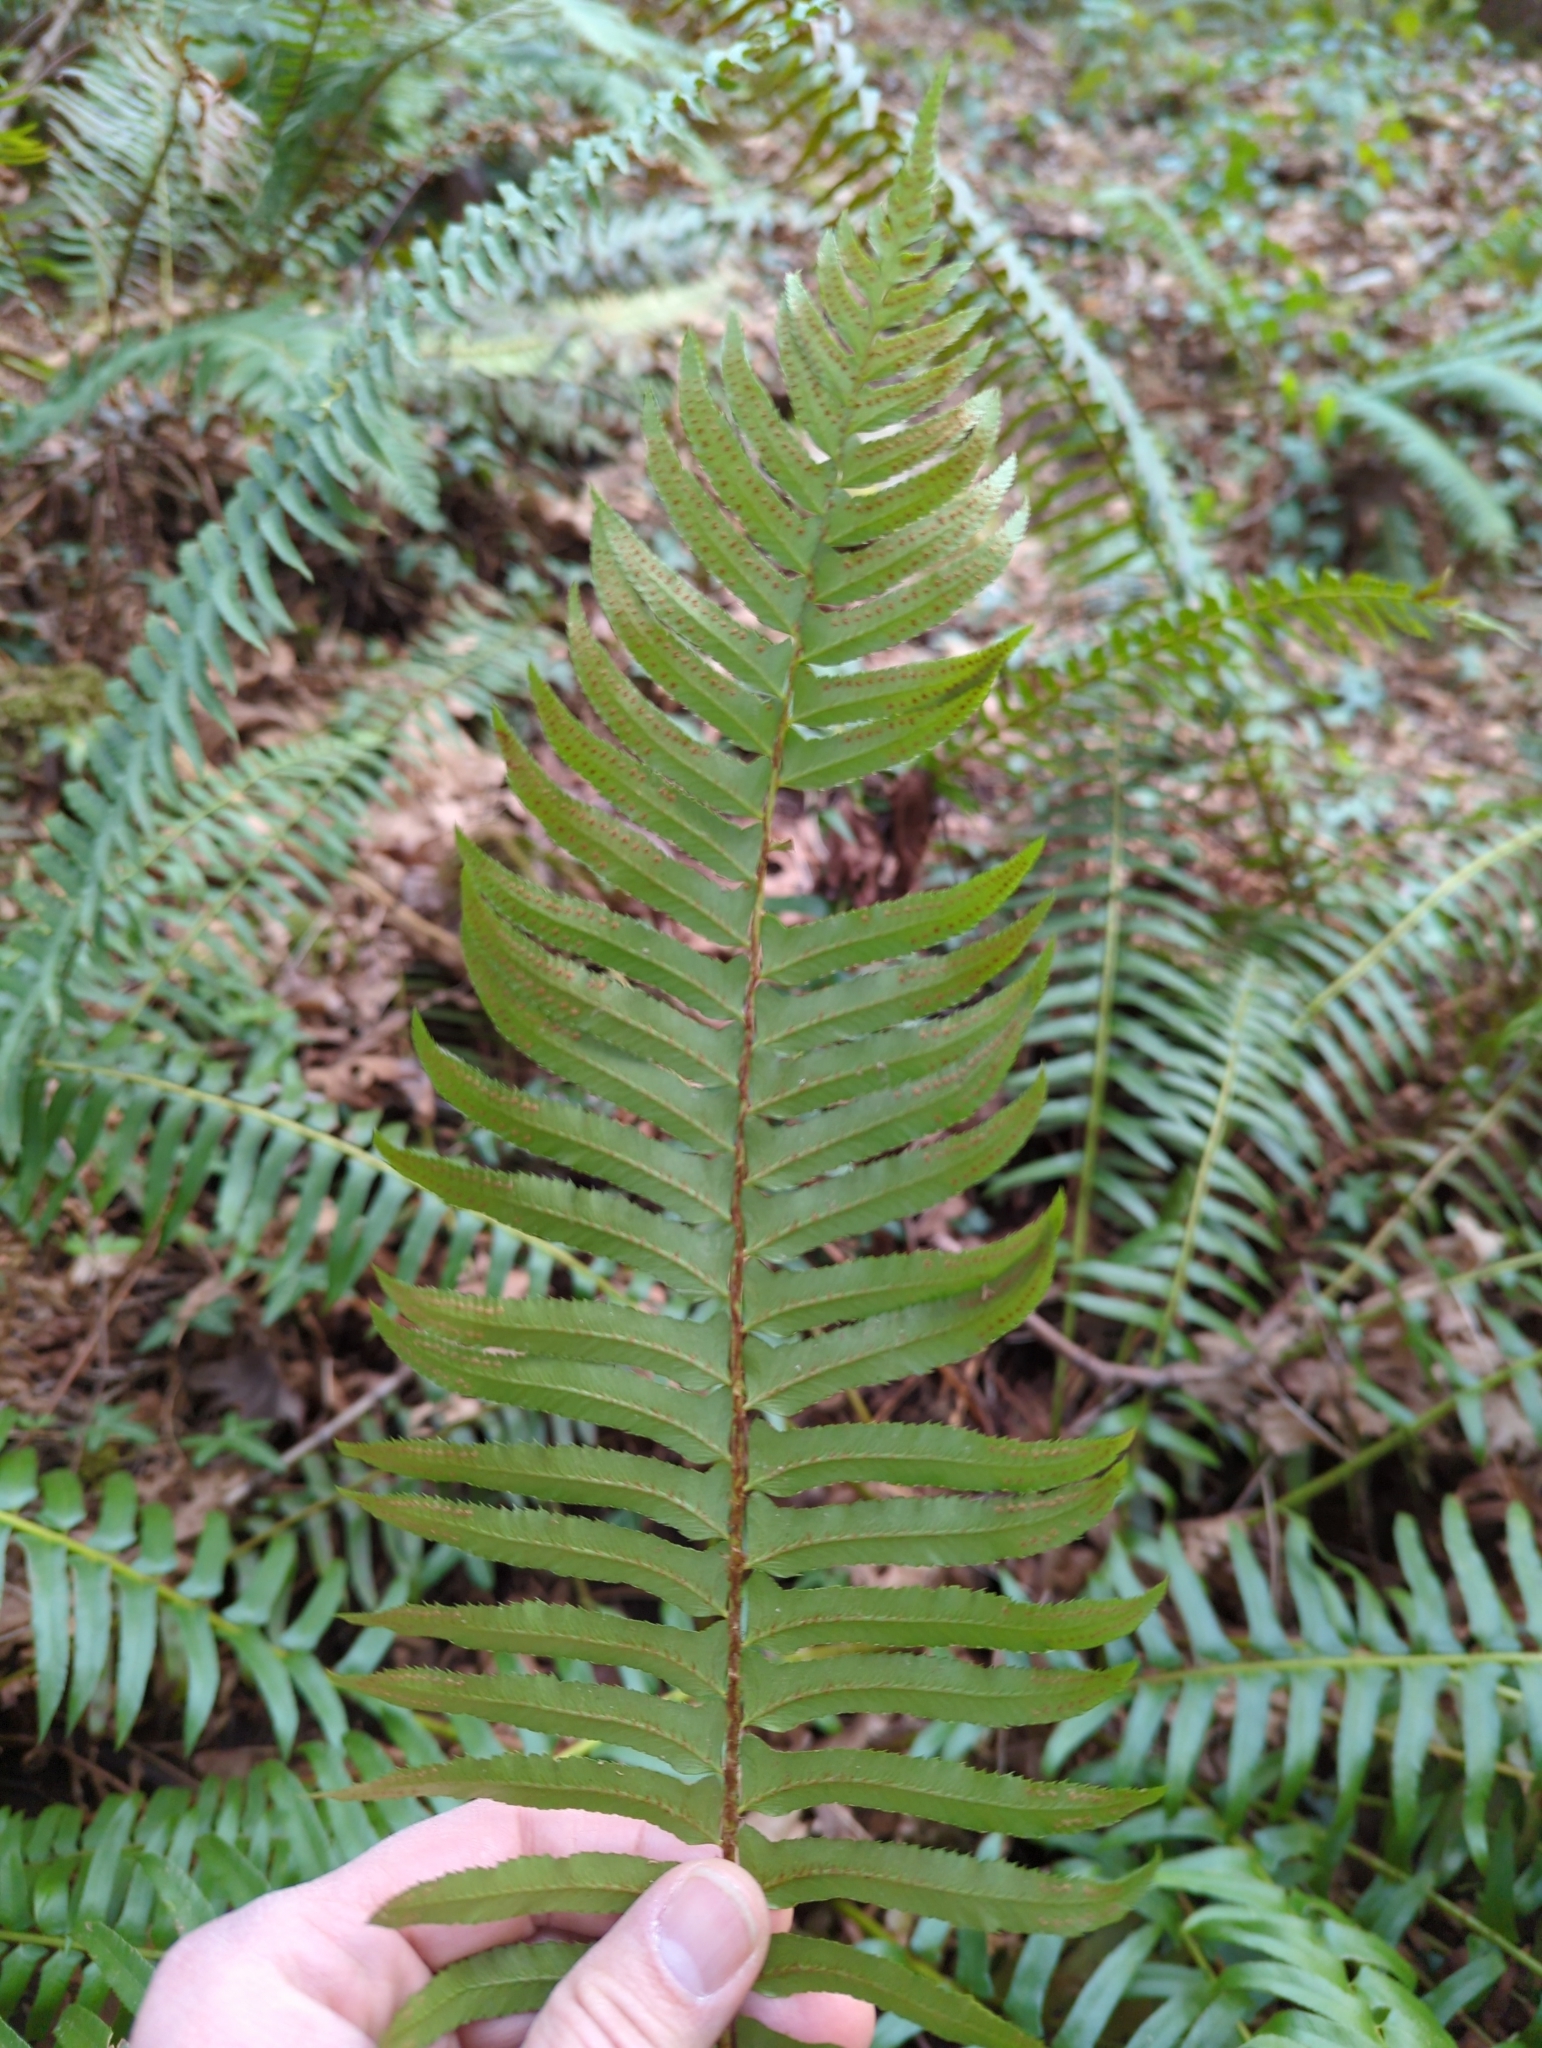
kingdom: Plantae
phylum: Tracheophyta
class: Polypodiopsida
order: Polypodiales
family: Dryopteridaceae
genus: Polystichum
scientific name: Polystichum munitum
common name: Western sword-fern
